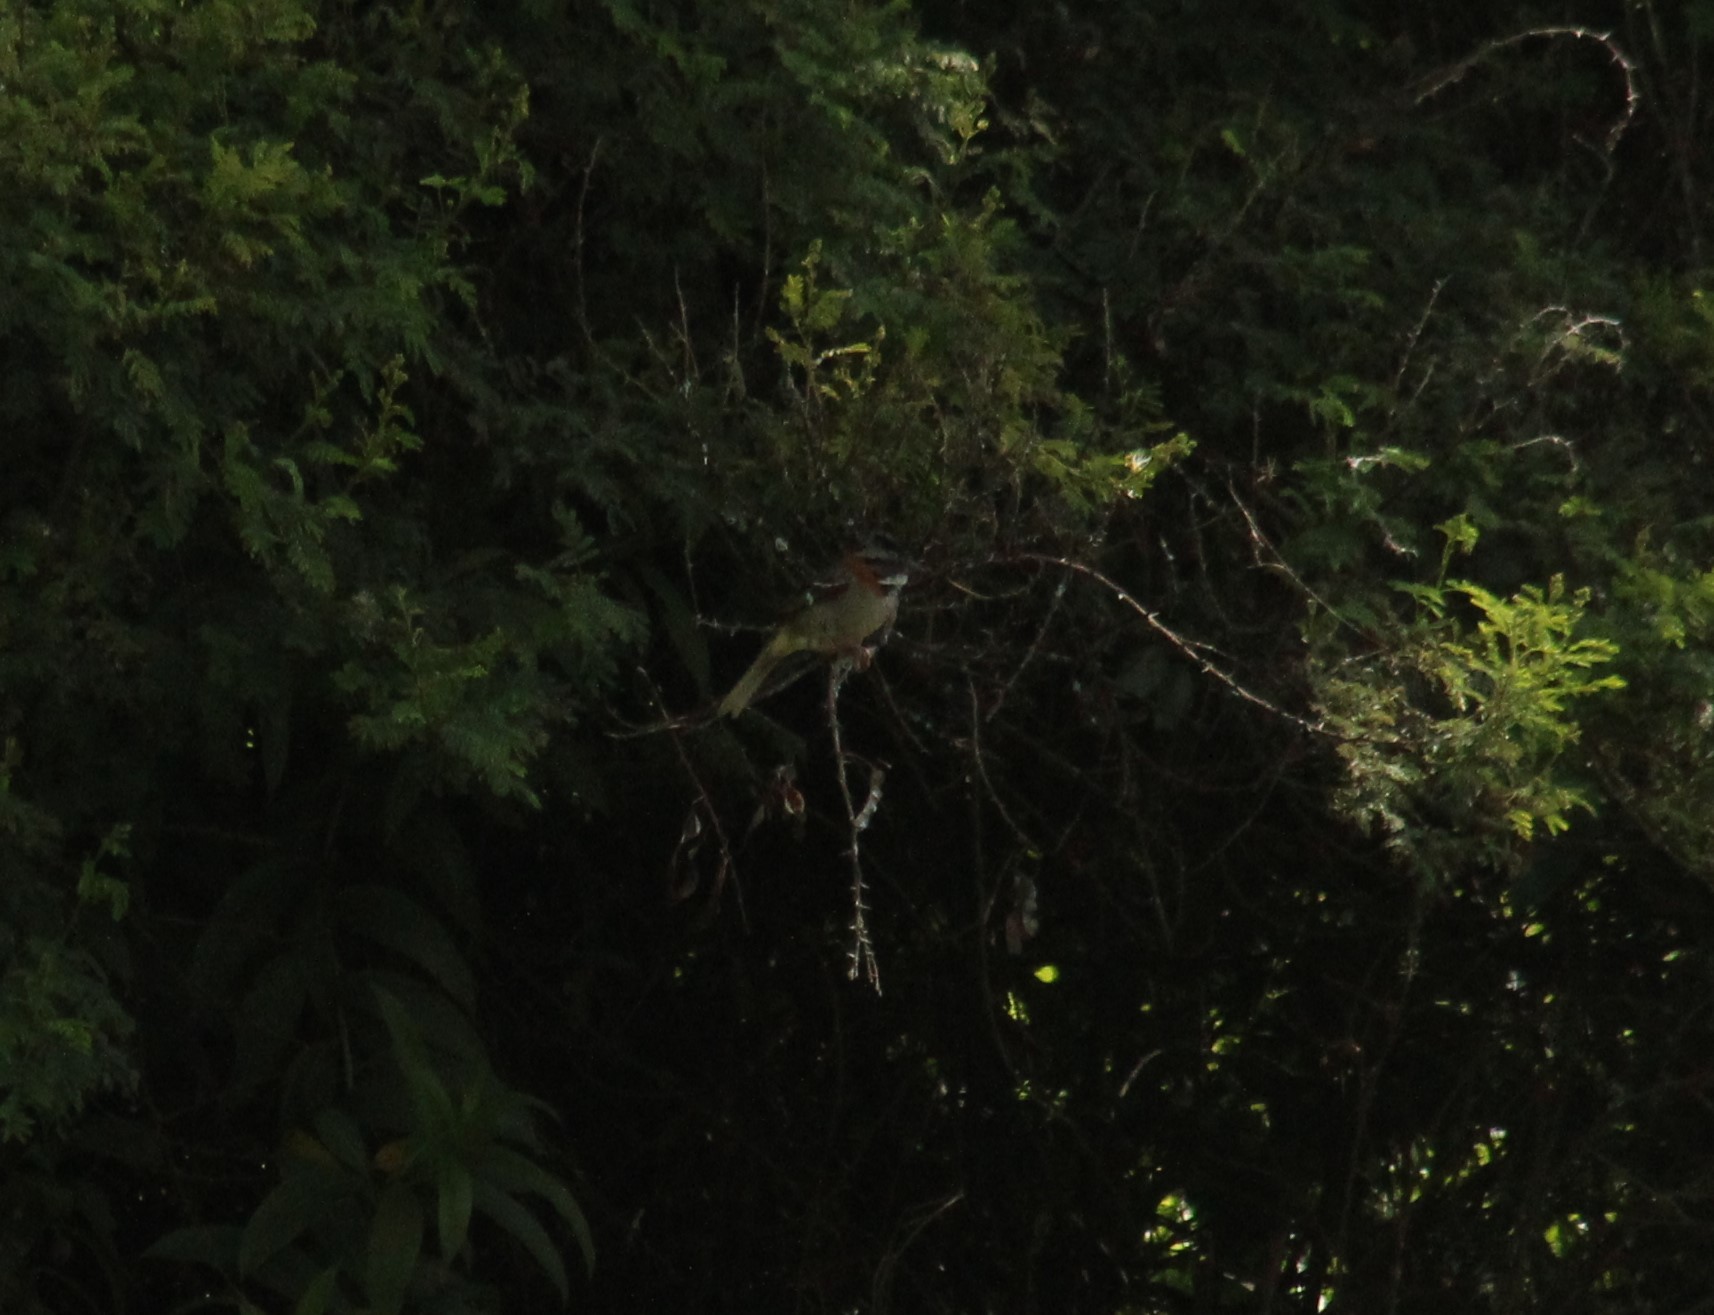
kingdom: Animalia
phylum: Chordata
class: Aves
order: Passeriformes
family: Passerellidae
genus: Zonotrichia
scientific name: Zonotrichia capensis
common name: Rufous-collared sparrow
